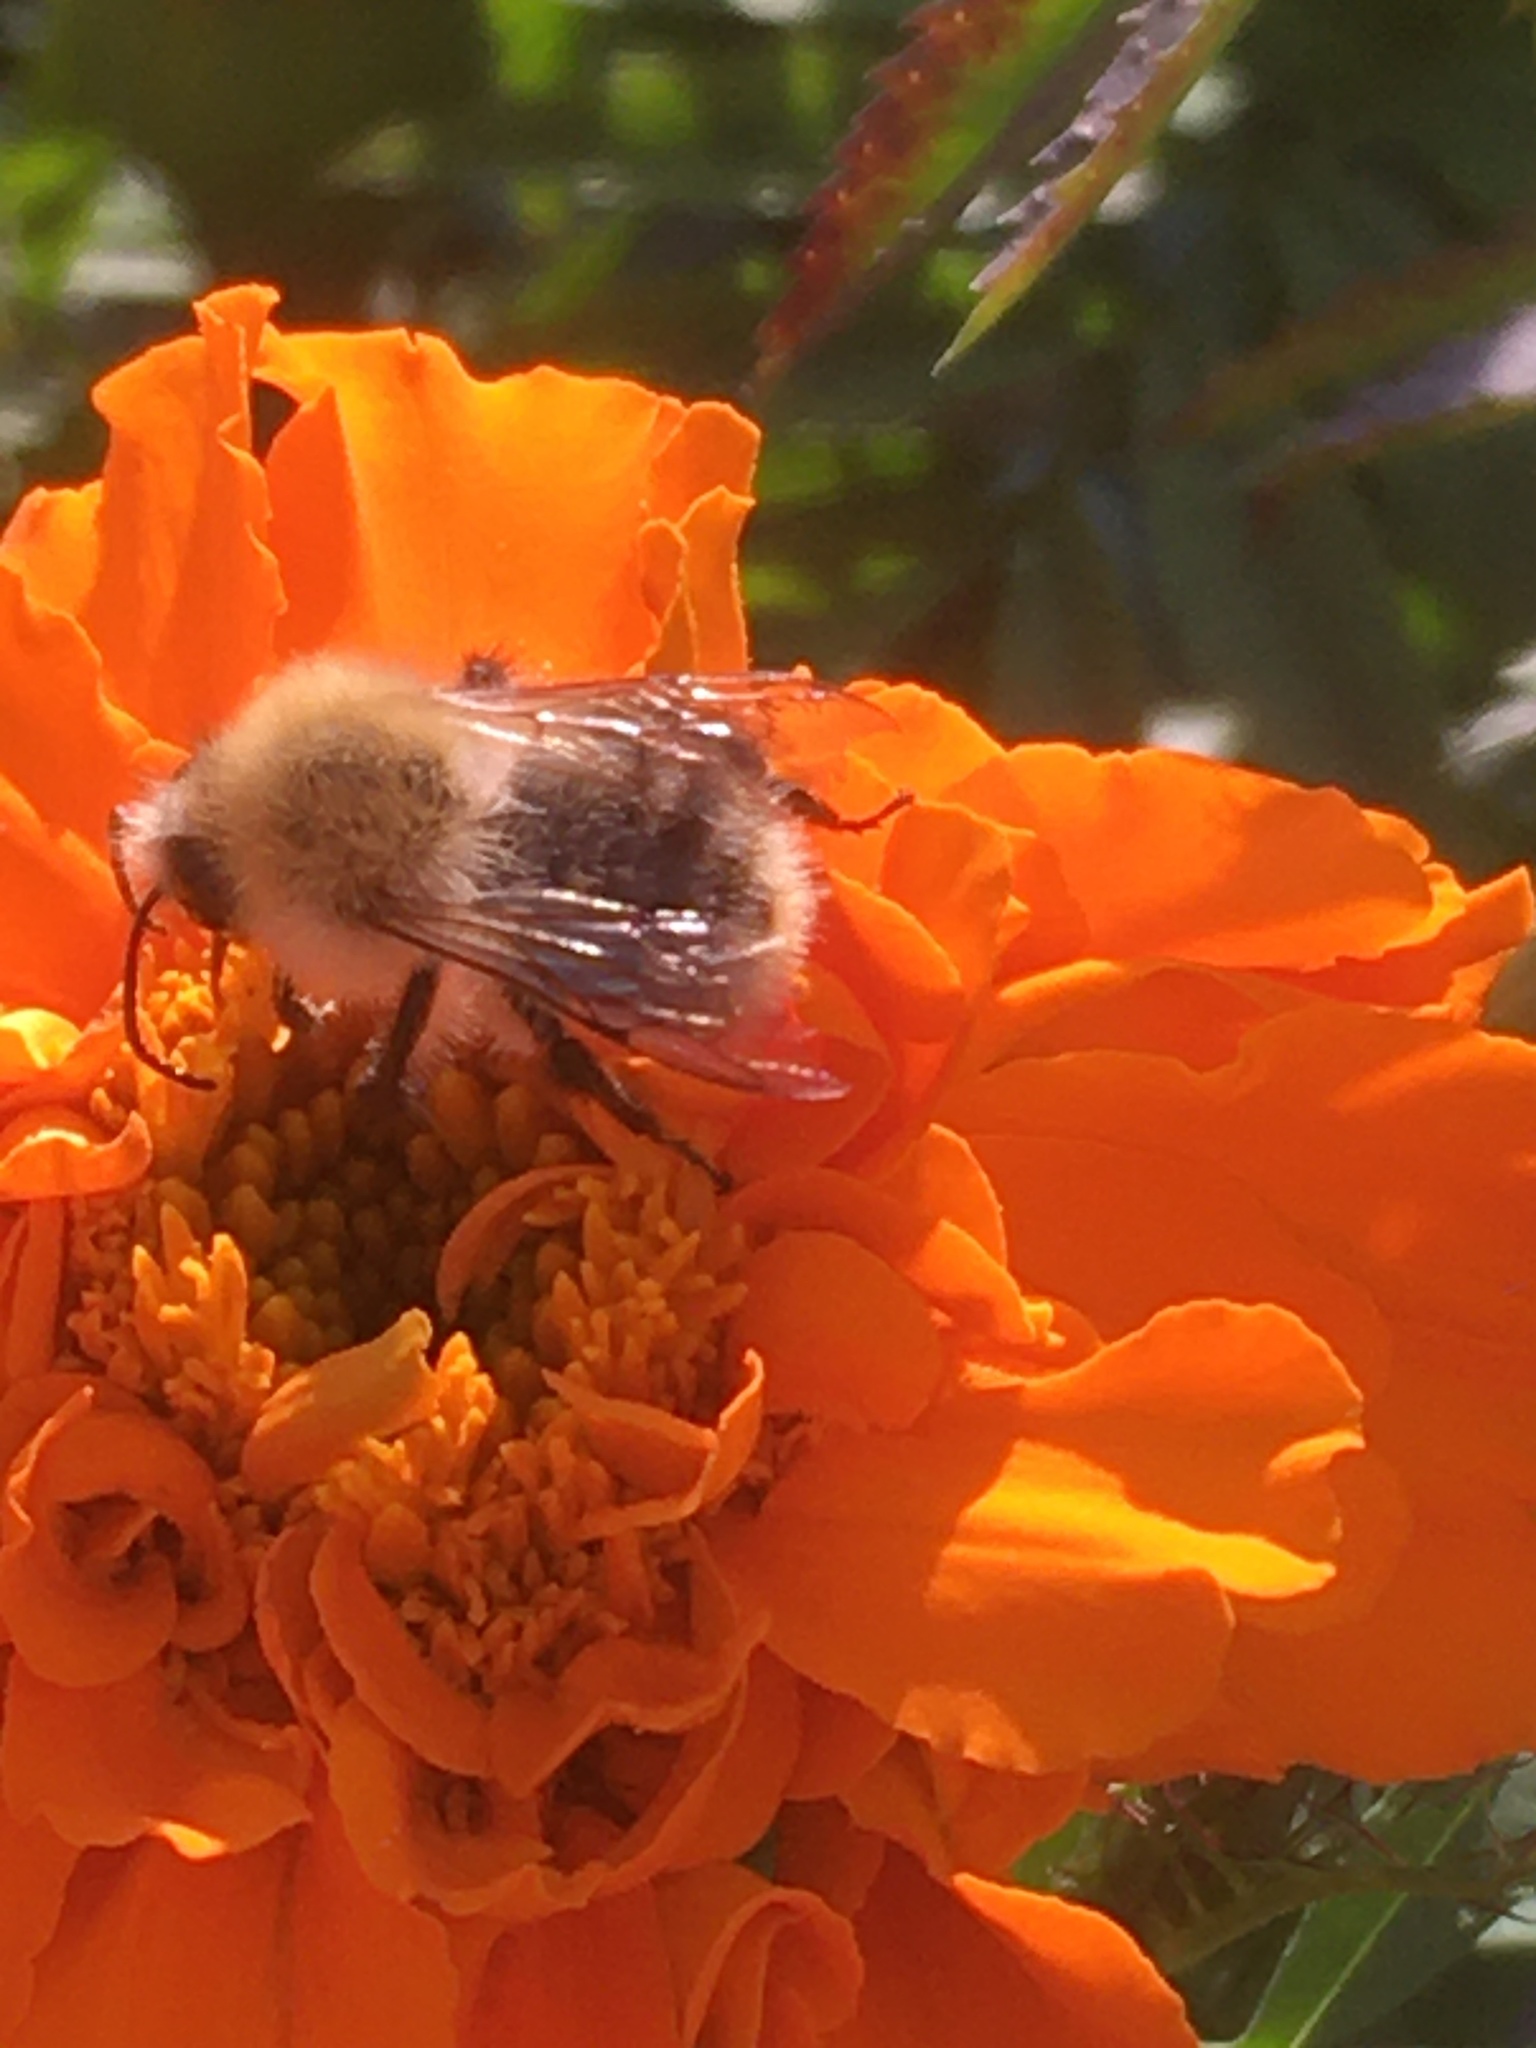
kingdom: Animalia
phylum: Arthropoda
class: Insecta
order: Hymenoptera
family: Apidae
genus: Bombus
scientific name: Bombus pascuorum
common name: Common carder bee
